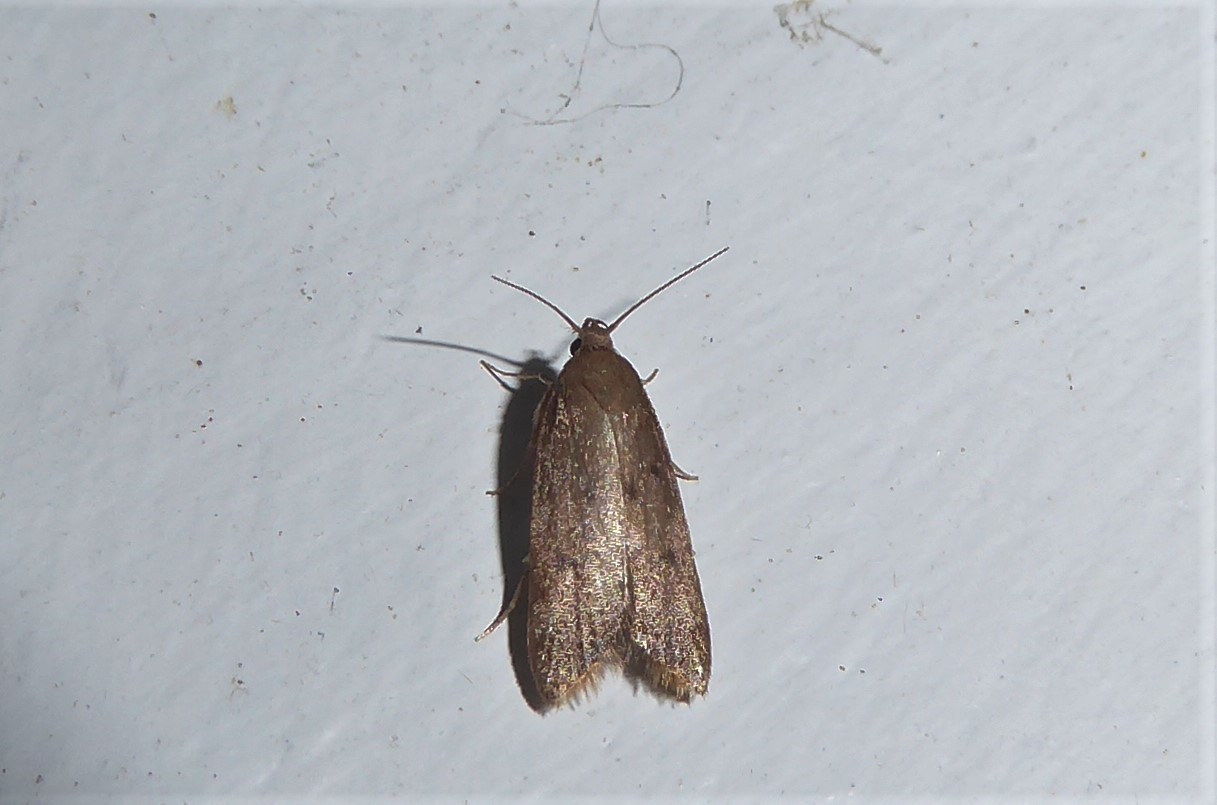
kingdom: Animalia
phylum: Arthropoda
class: Insecta
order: Lepidoptera
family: Oecophoridae
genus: Tachystola
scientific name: Tachystola acroxantha
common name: Ruddy streak
